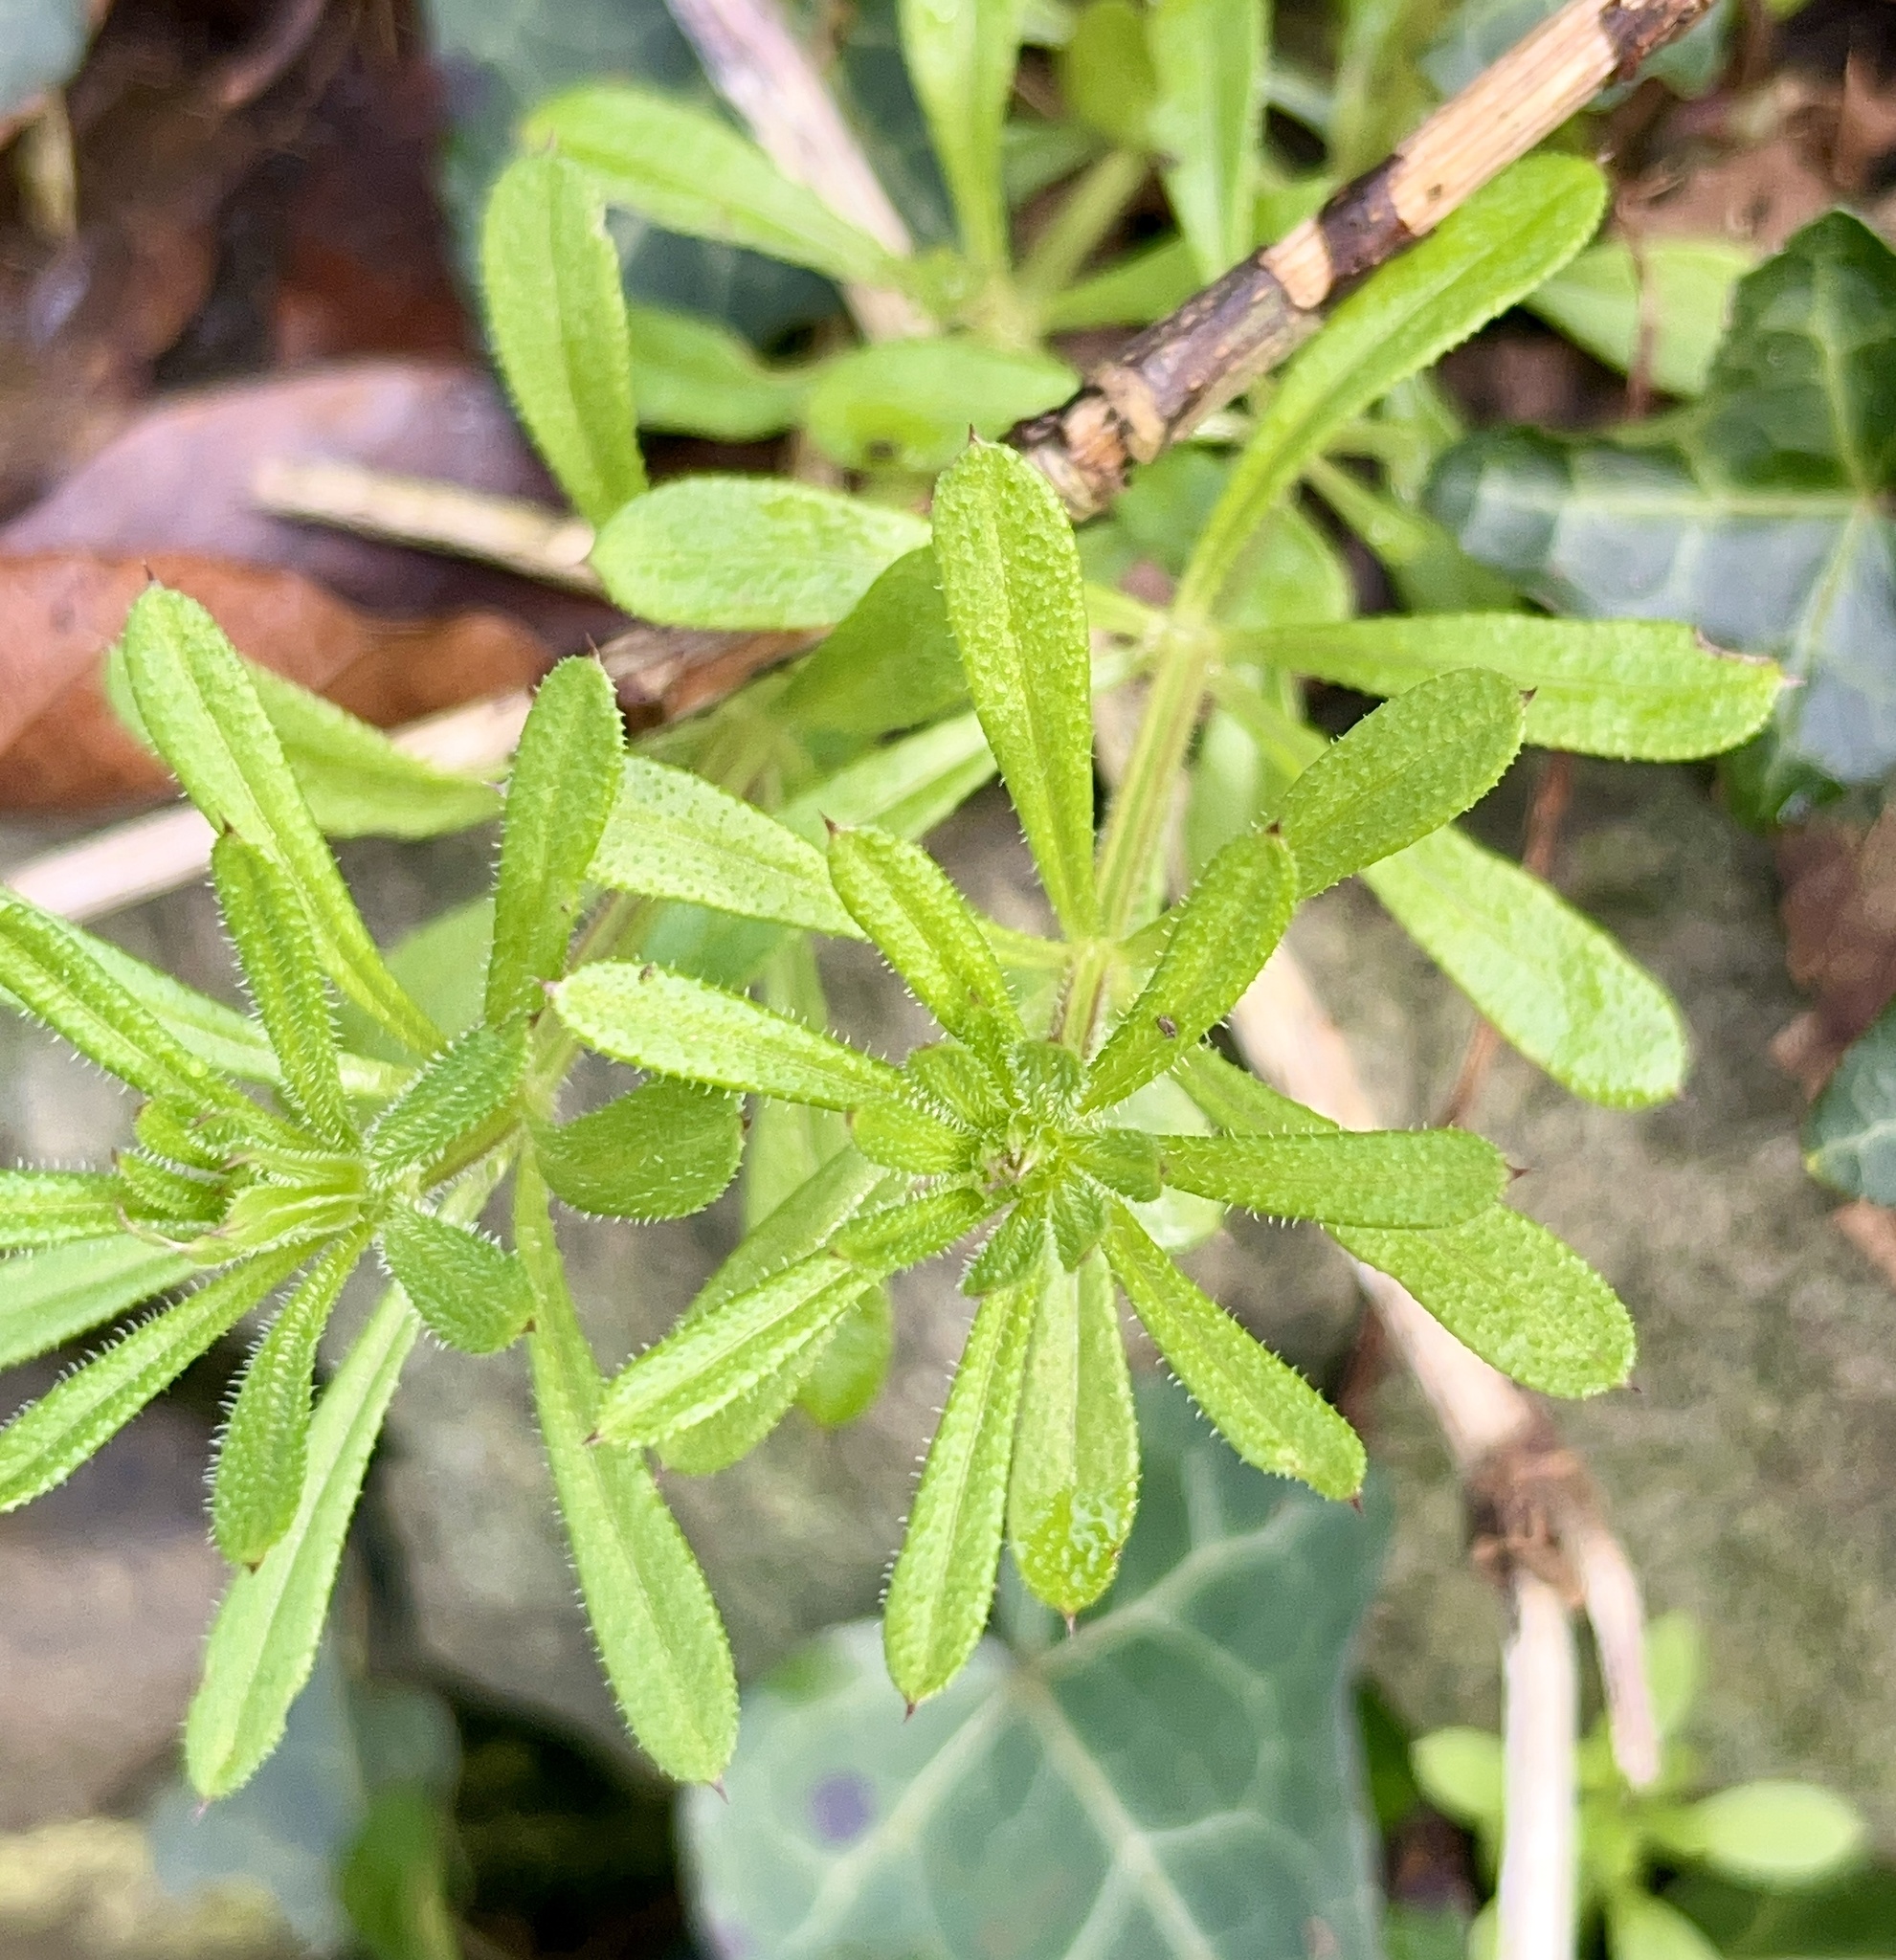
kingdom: Plantae
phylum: Tracheophyta
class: Magnoliopsida
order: Gentianales
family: Rubiaceae
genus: Galium
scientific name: Galium aparine
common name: Cleavers
